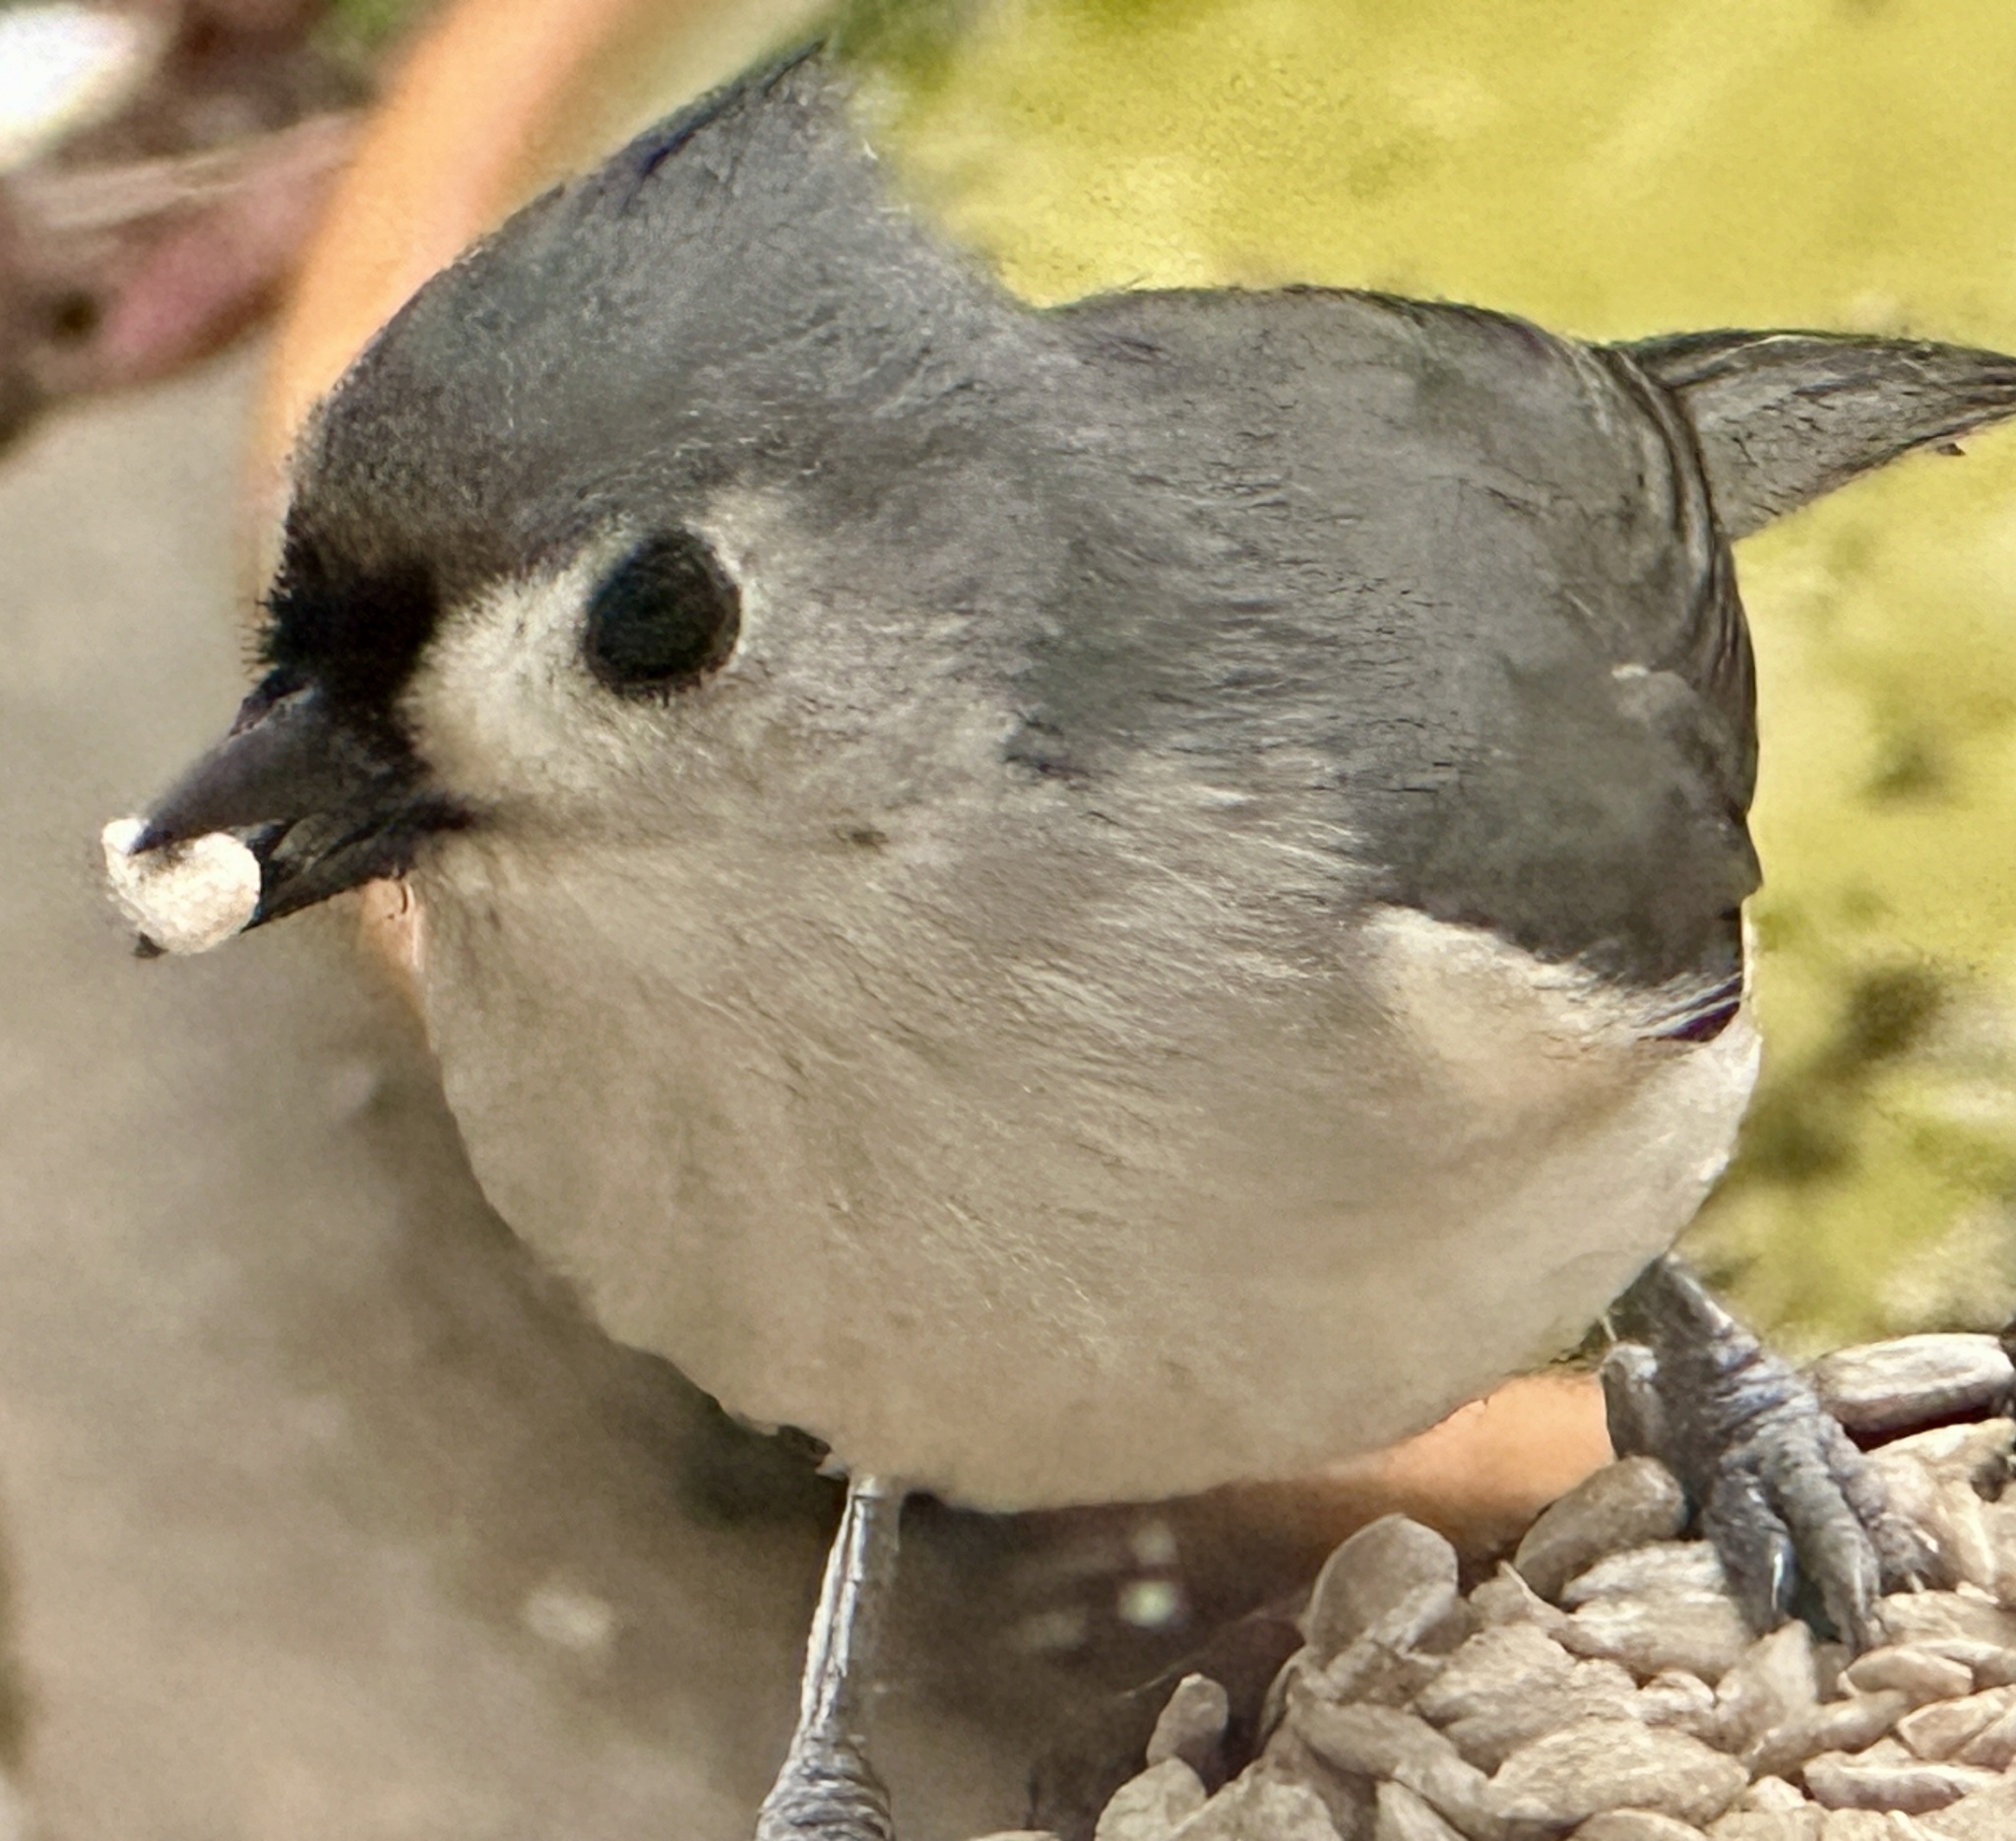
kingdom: Animalia
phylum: Chordata
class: Aves
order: Passeriformes
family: Paridae
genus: Baeolophus
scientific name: Baeolophus bicolor
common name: Tufted titmouse
